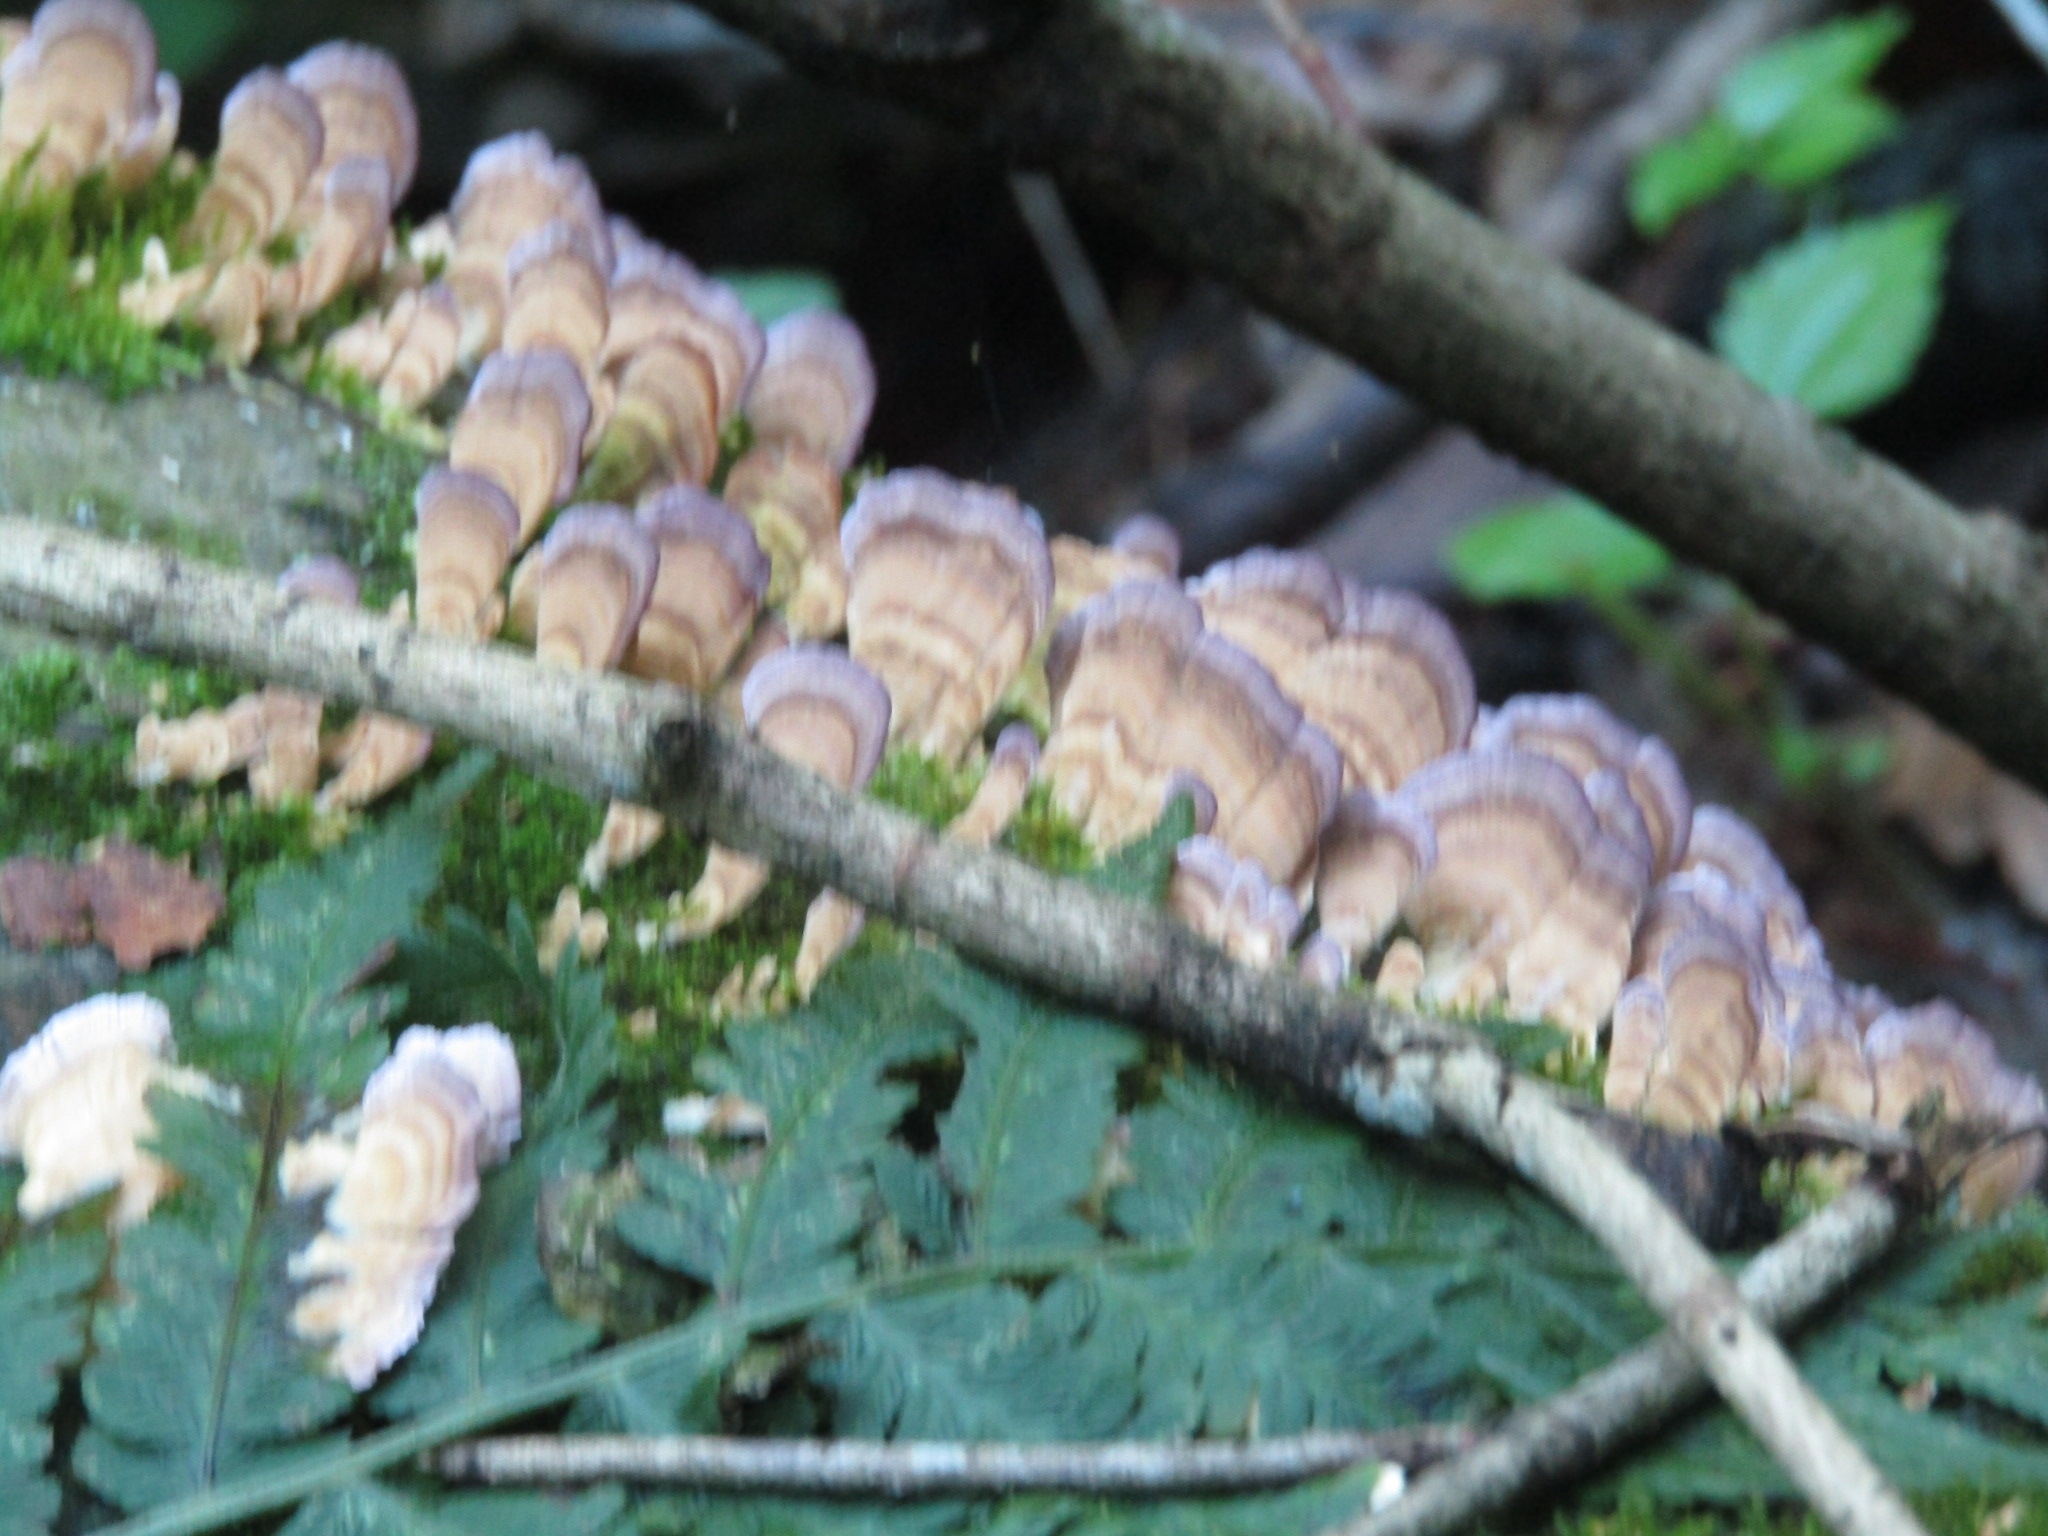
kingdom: Fungi
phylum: Basidiomycota
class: Agaricomycetes
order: Hymenochaetales
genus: Trichaptum
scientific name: Trichaptum biforme
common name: Violet-toothed polypore
